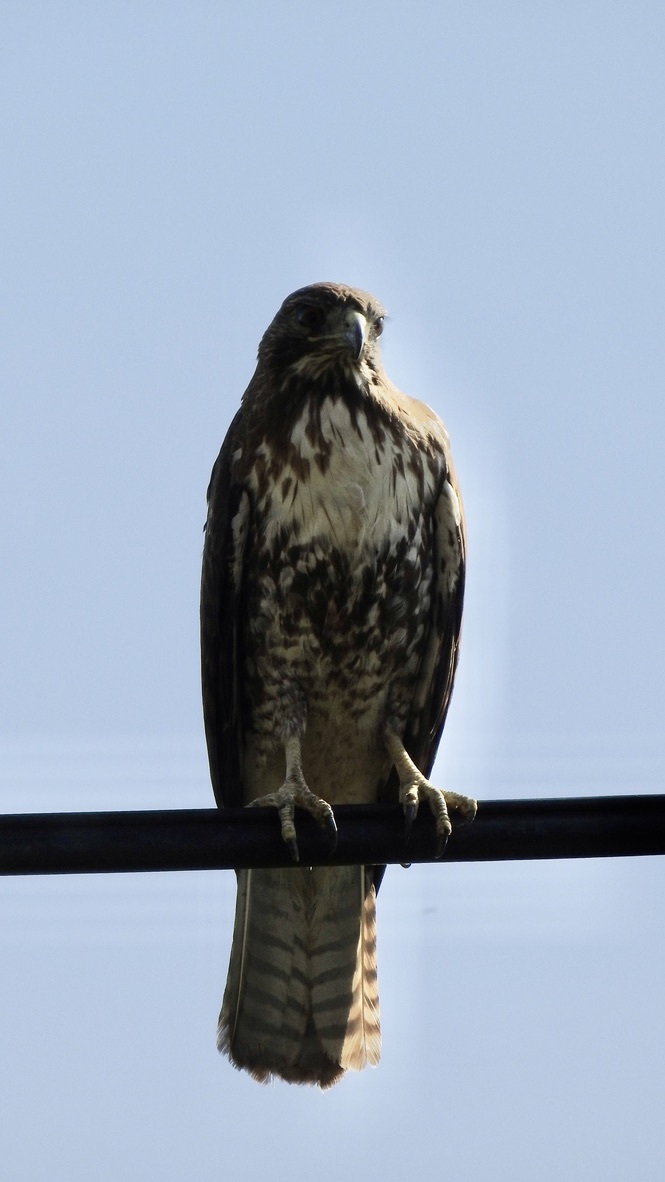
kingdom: Animalia
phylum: Chordata
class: Aves
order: Accipitriformes
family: Accipitridae
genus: Buteo
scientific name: Buteo jamaicensis
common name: Red-tailed hawk
